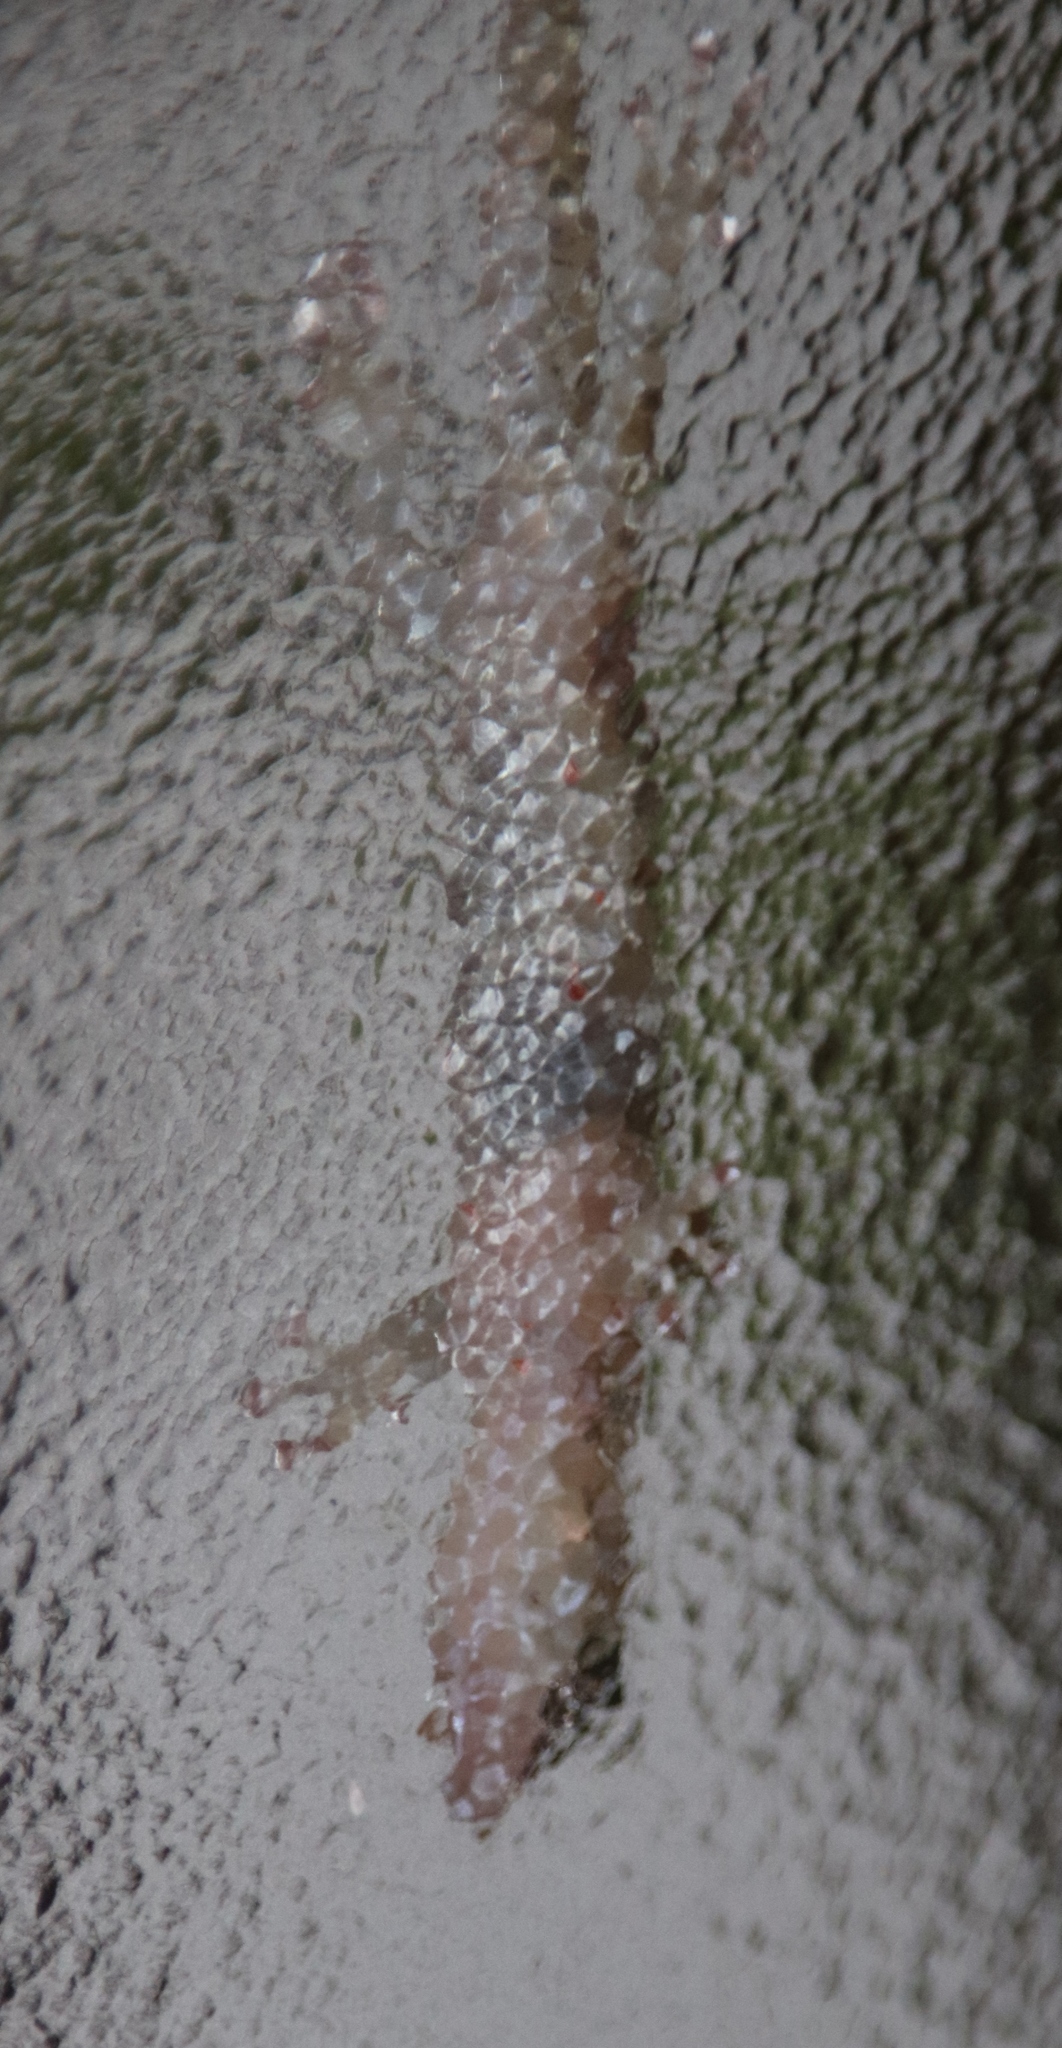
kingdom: Animalia
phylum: Chordata
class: Squamata
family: Gekkonidae
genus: Afrogecko
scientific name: Afrogecko porphyreus
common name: Marbled leaf-toed gecko
